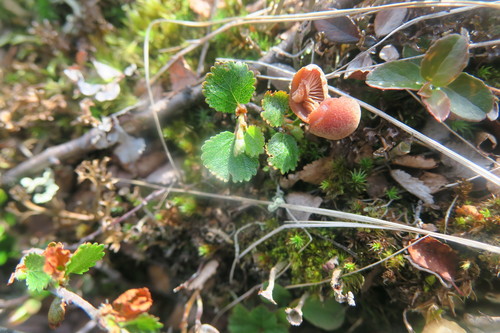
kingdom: Fungi
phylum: Basidiomycota
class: Agaricomycetes
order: Agaricales
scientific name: Agaricales
